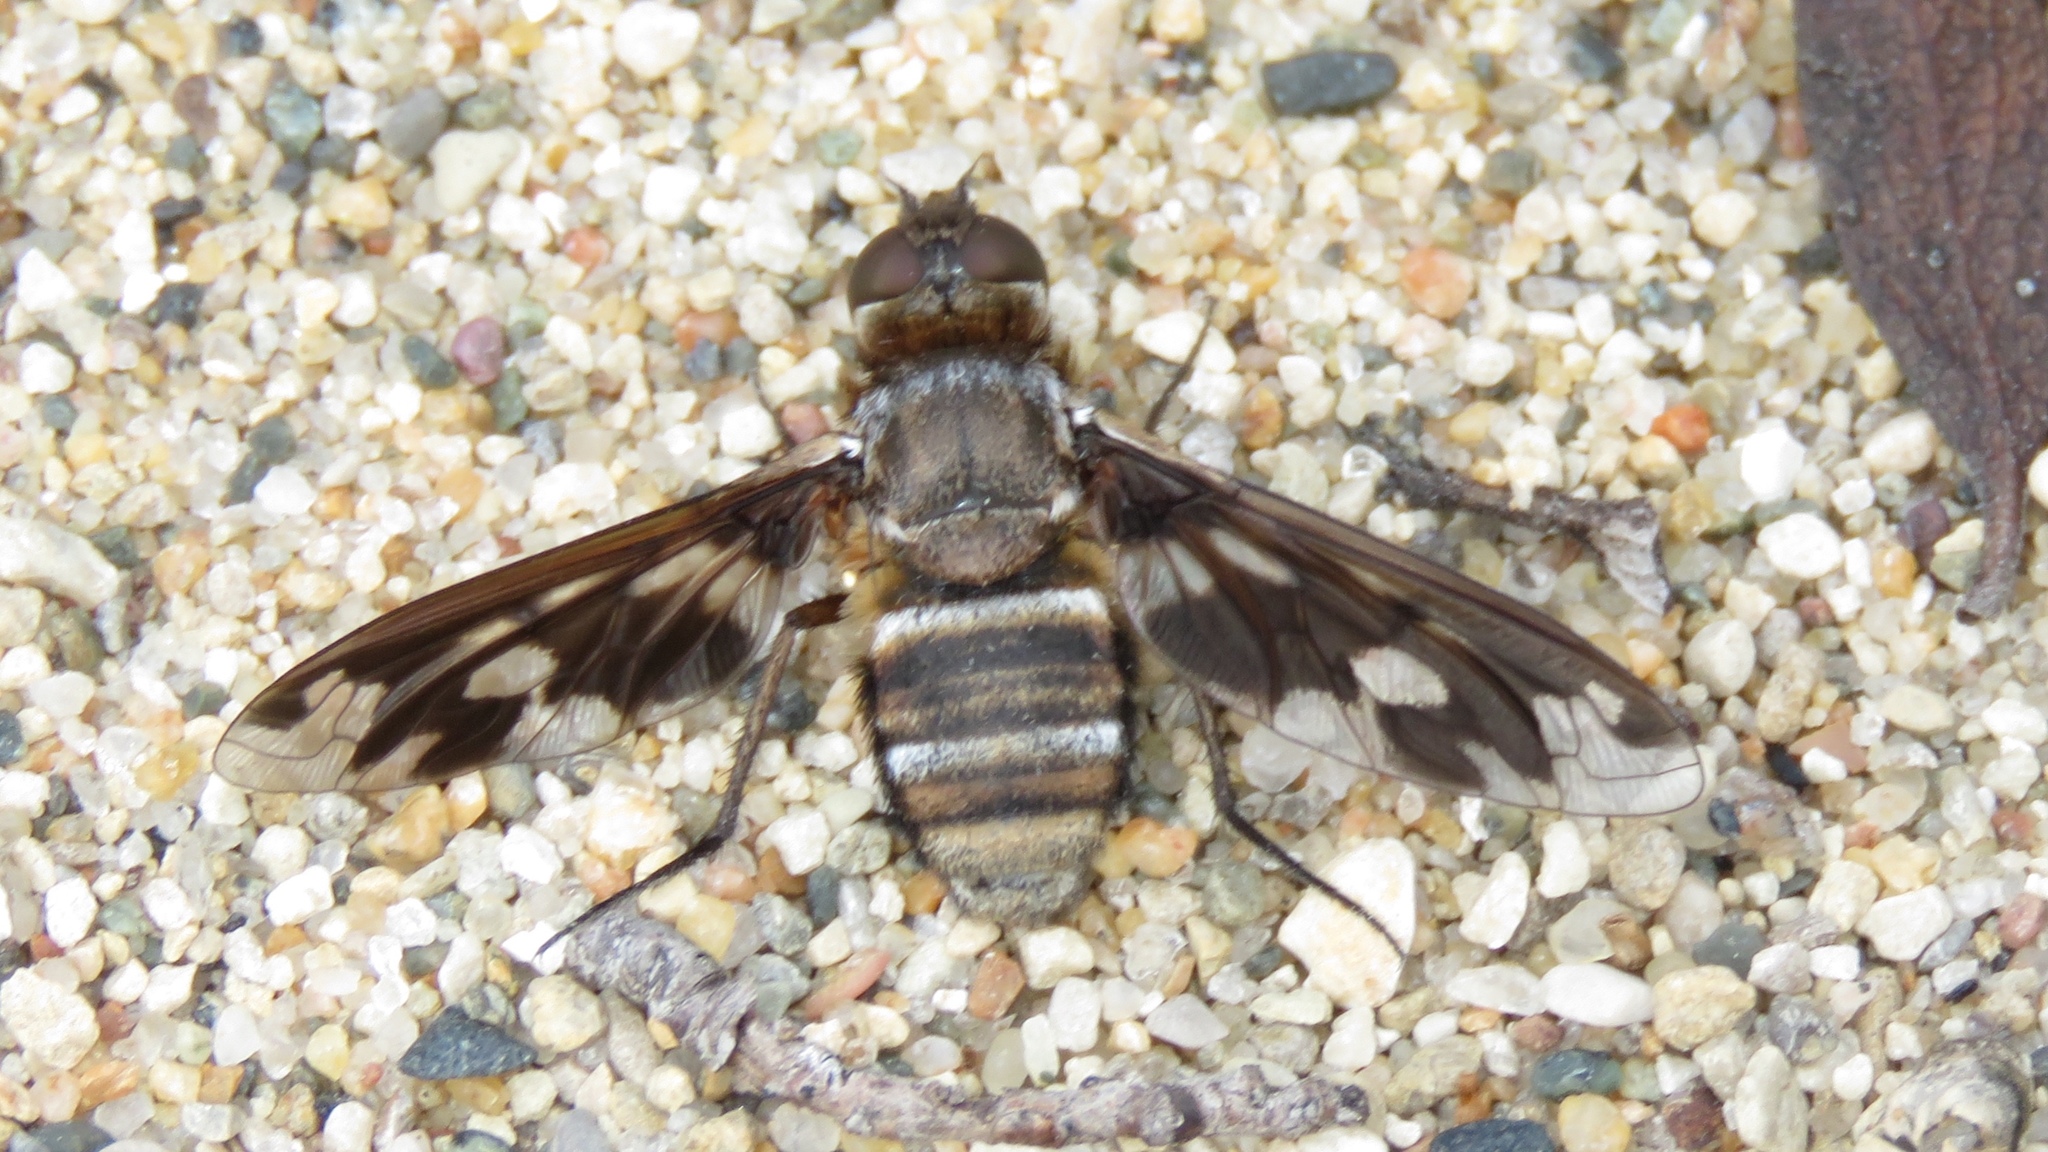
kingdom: Animalia
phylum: Arthropoda
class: Insecta
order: Diptera
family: Bombyliidae
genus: Exoprosopa
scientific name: Exoprosopa fascipennis
